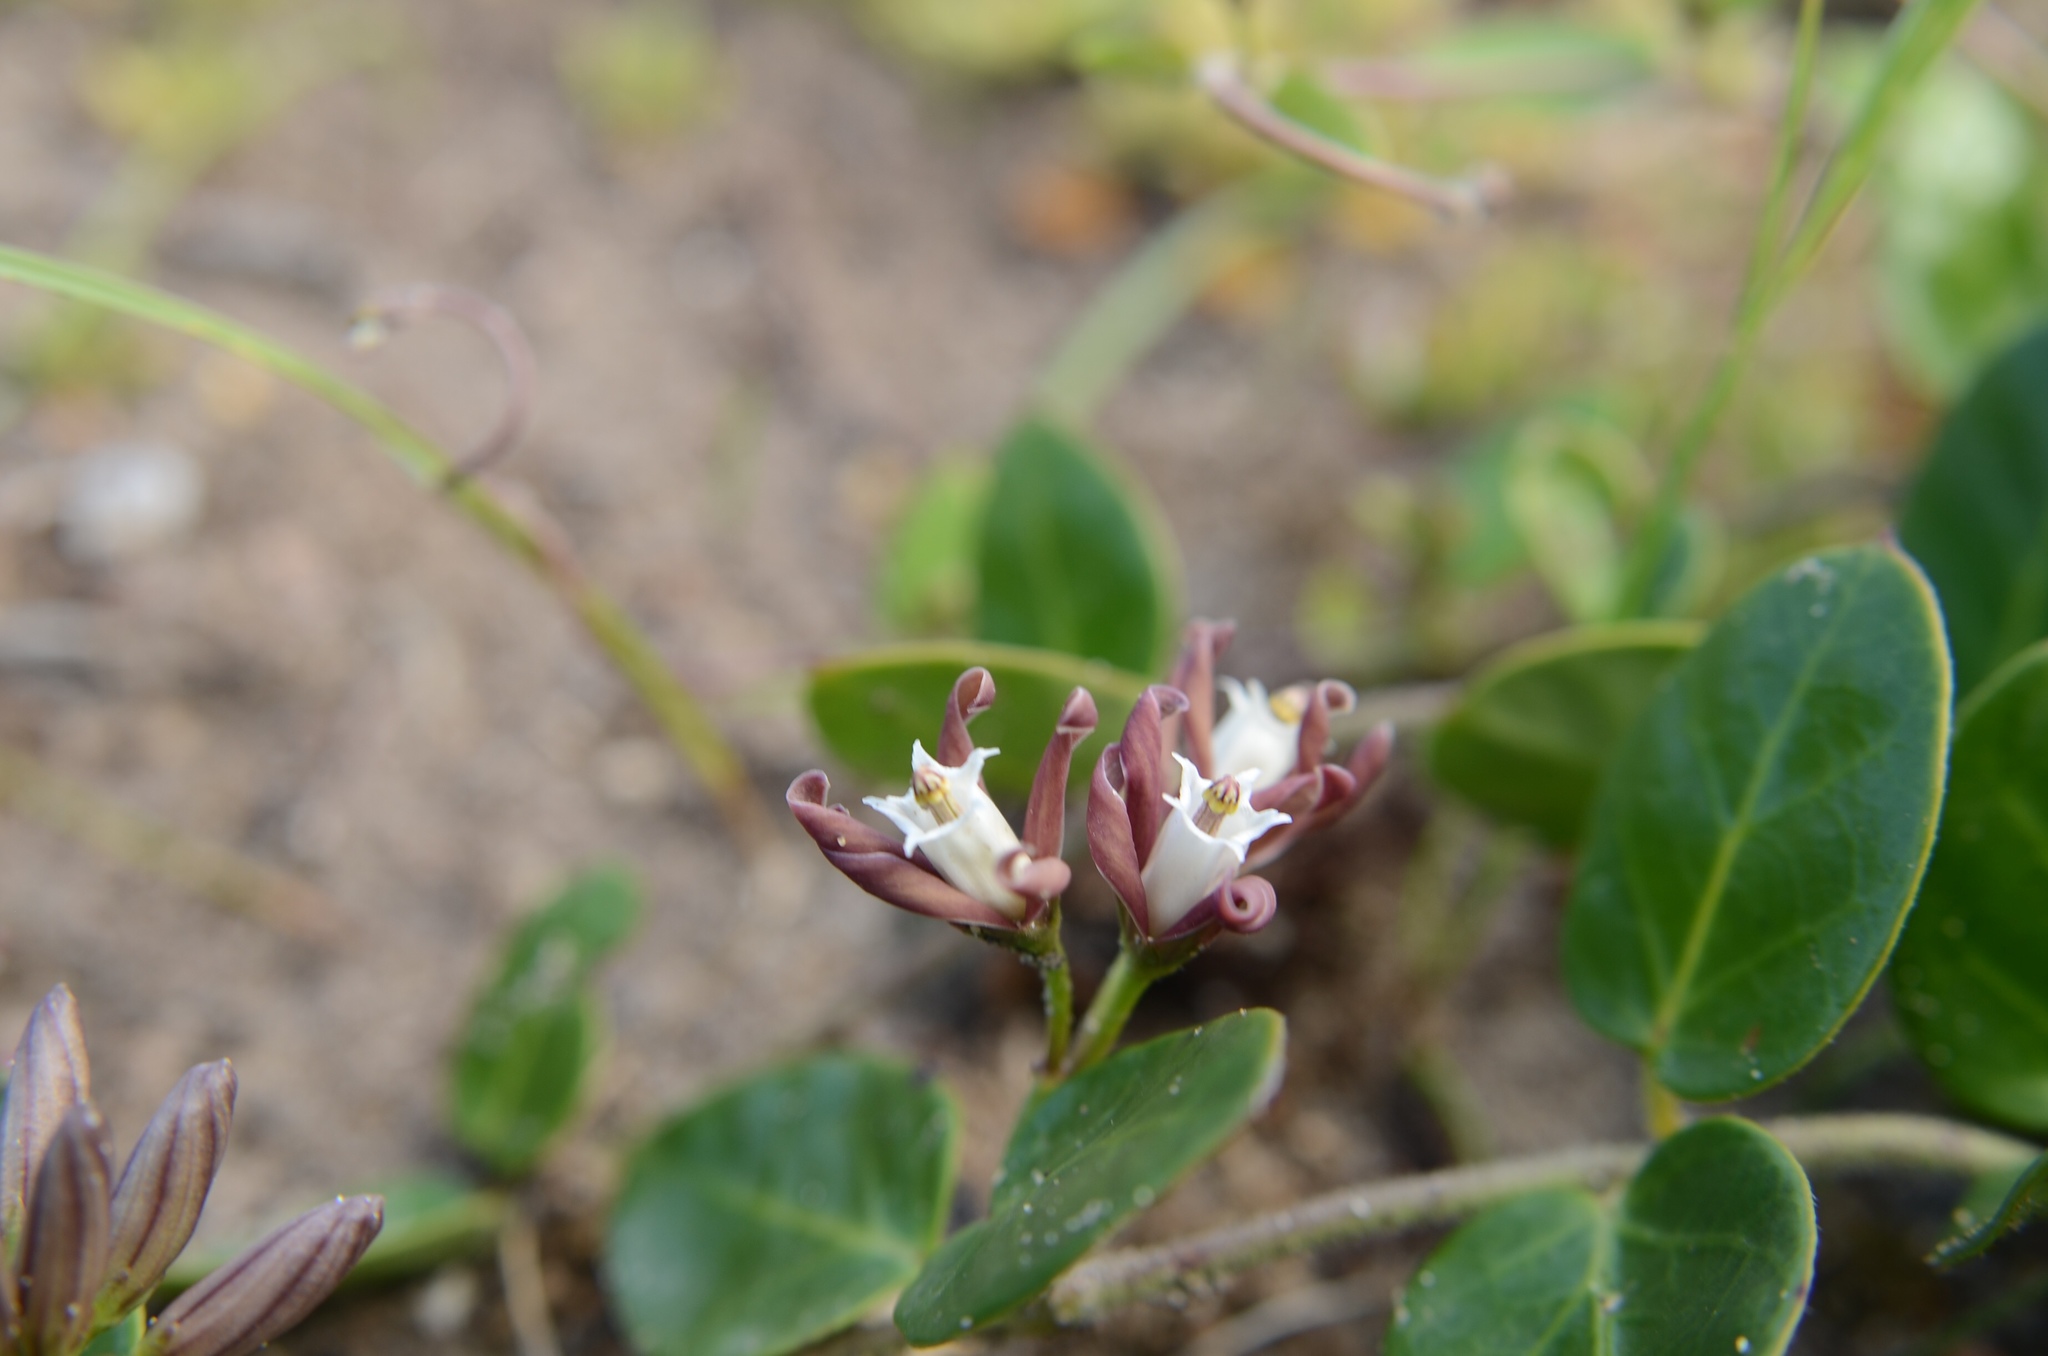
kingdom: Plantae
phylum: Tracheophyta
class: Magnoliopsida
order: Gentianales
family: Apocynaceae
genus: Cynanchum
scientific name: Cynanchum africanum
